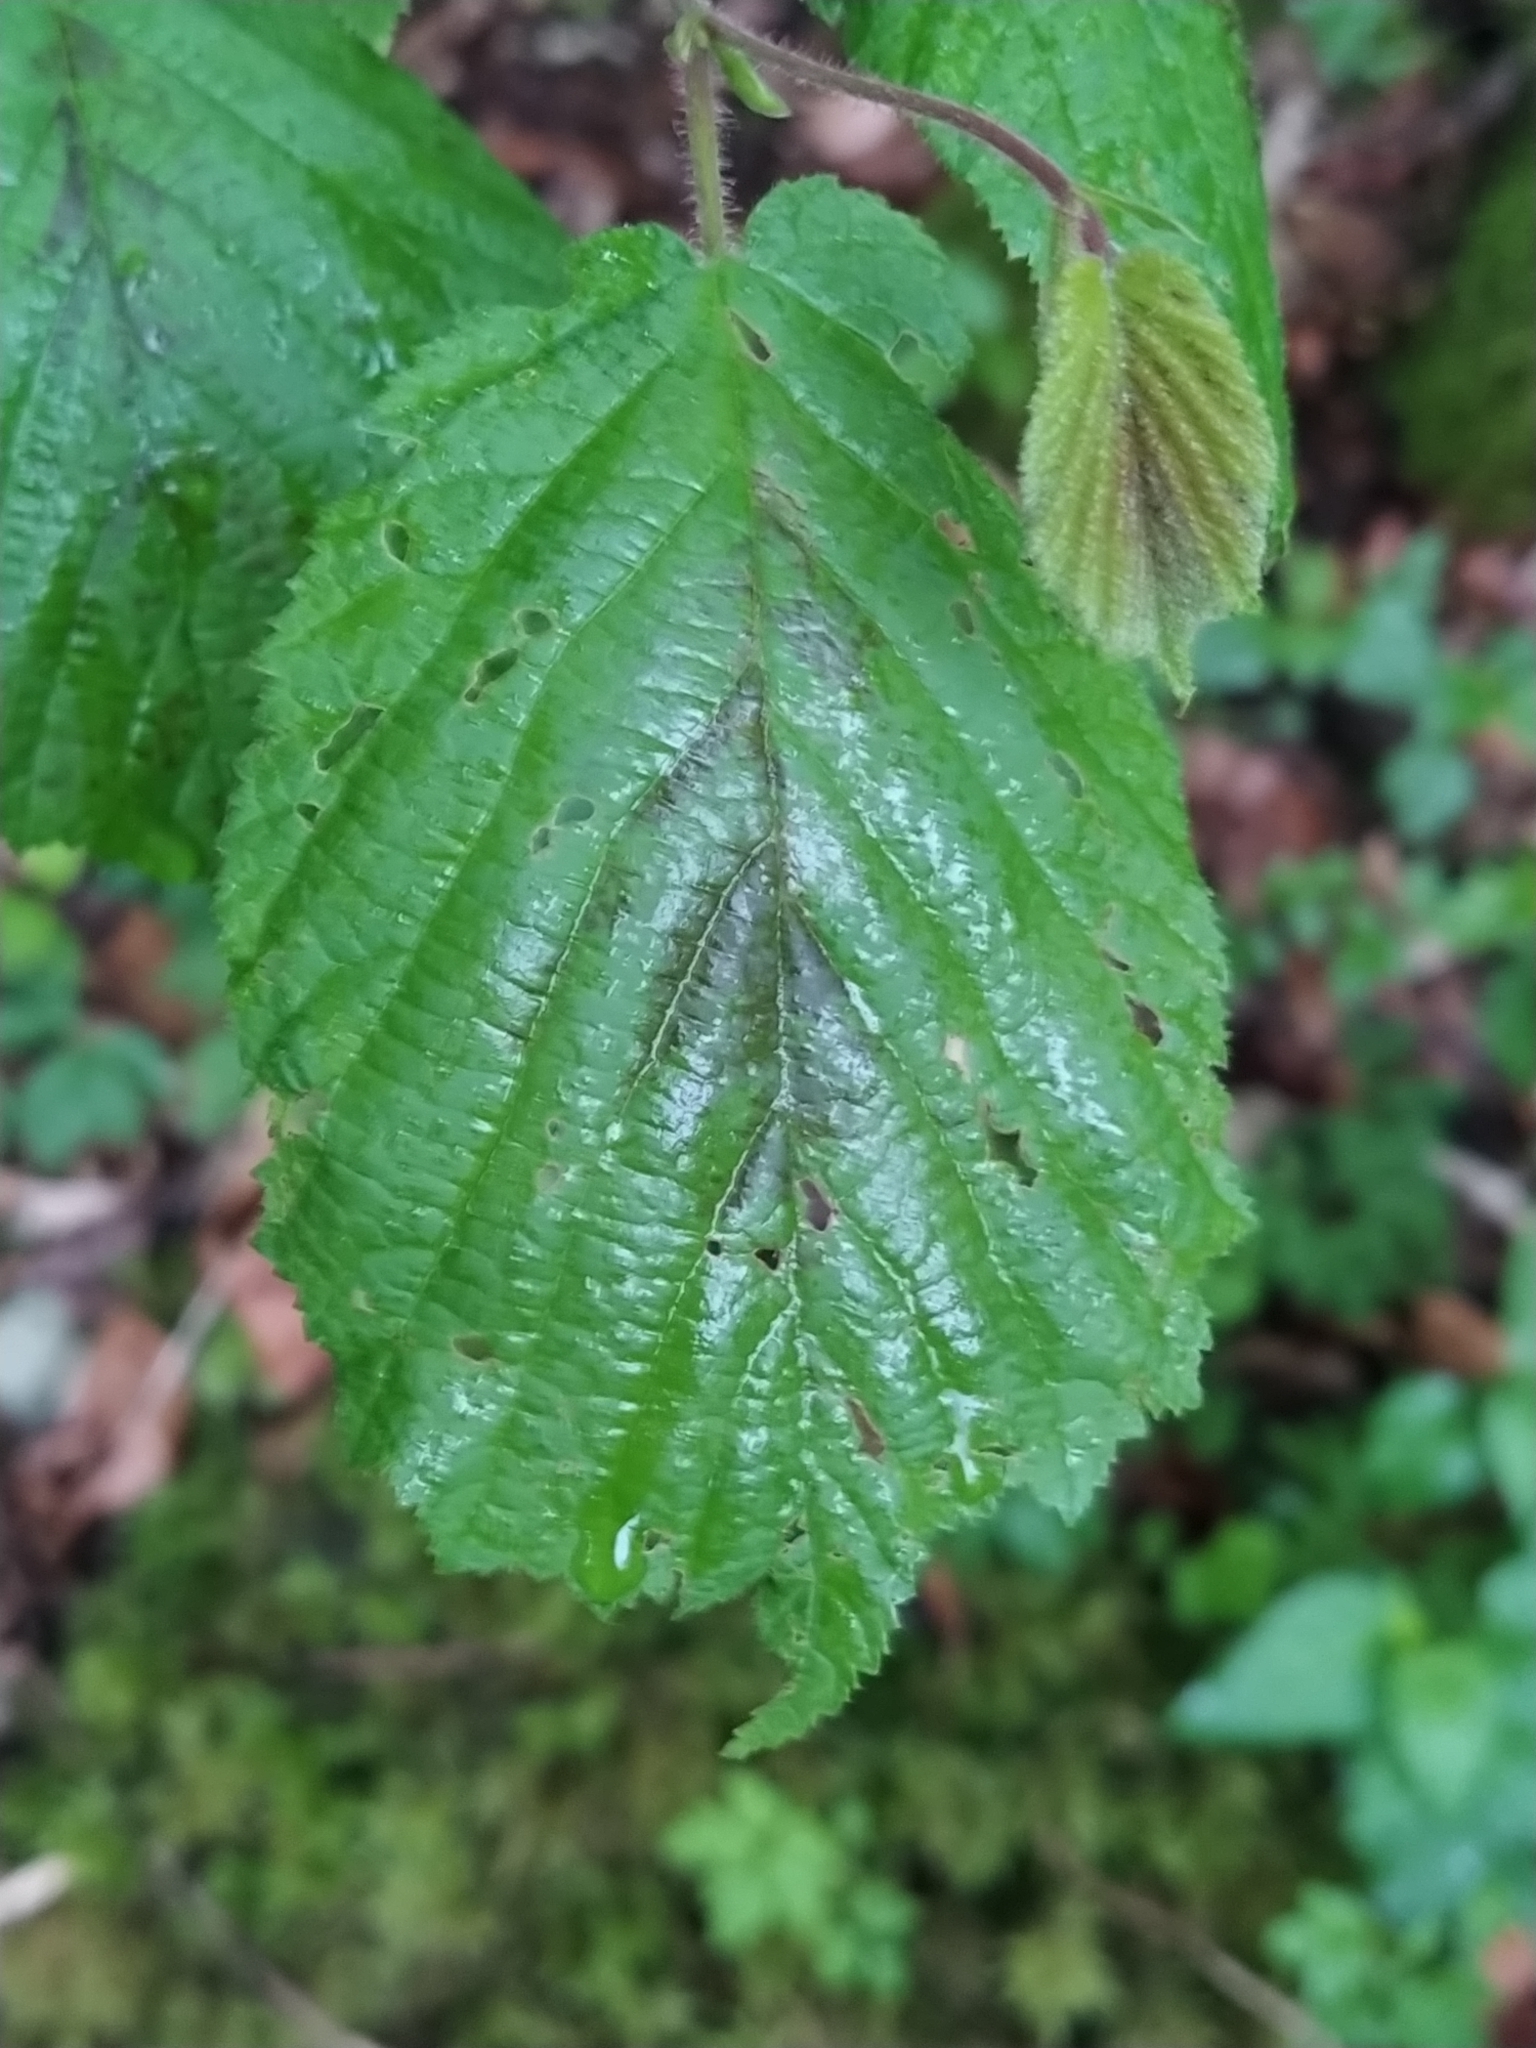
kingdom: Plantae
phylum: Tracheophyta
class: Magnoliopsida
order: Fagales
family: Betulaceae
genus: Corylus
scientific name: Corylus avellana
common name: European hazel
